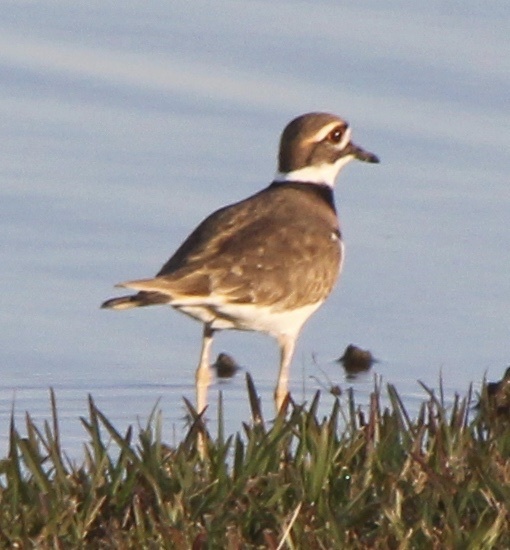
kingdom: Animalia
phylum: Chordata
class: Aves
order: Charadriiformes
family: Charadriidae
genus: Charadrius
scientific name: Charadrius vociferus
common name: Killdeer
